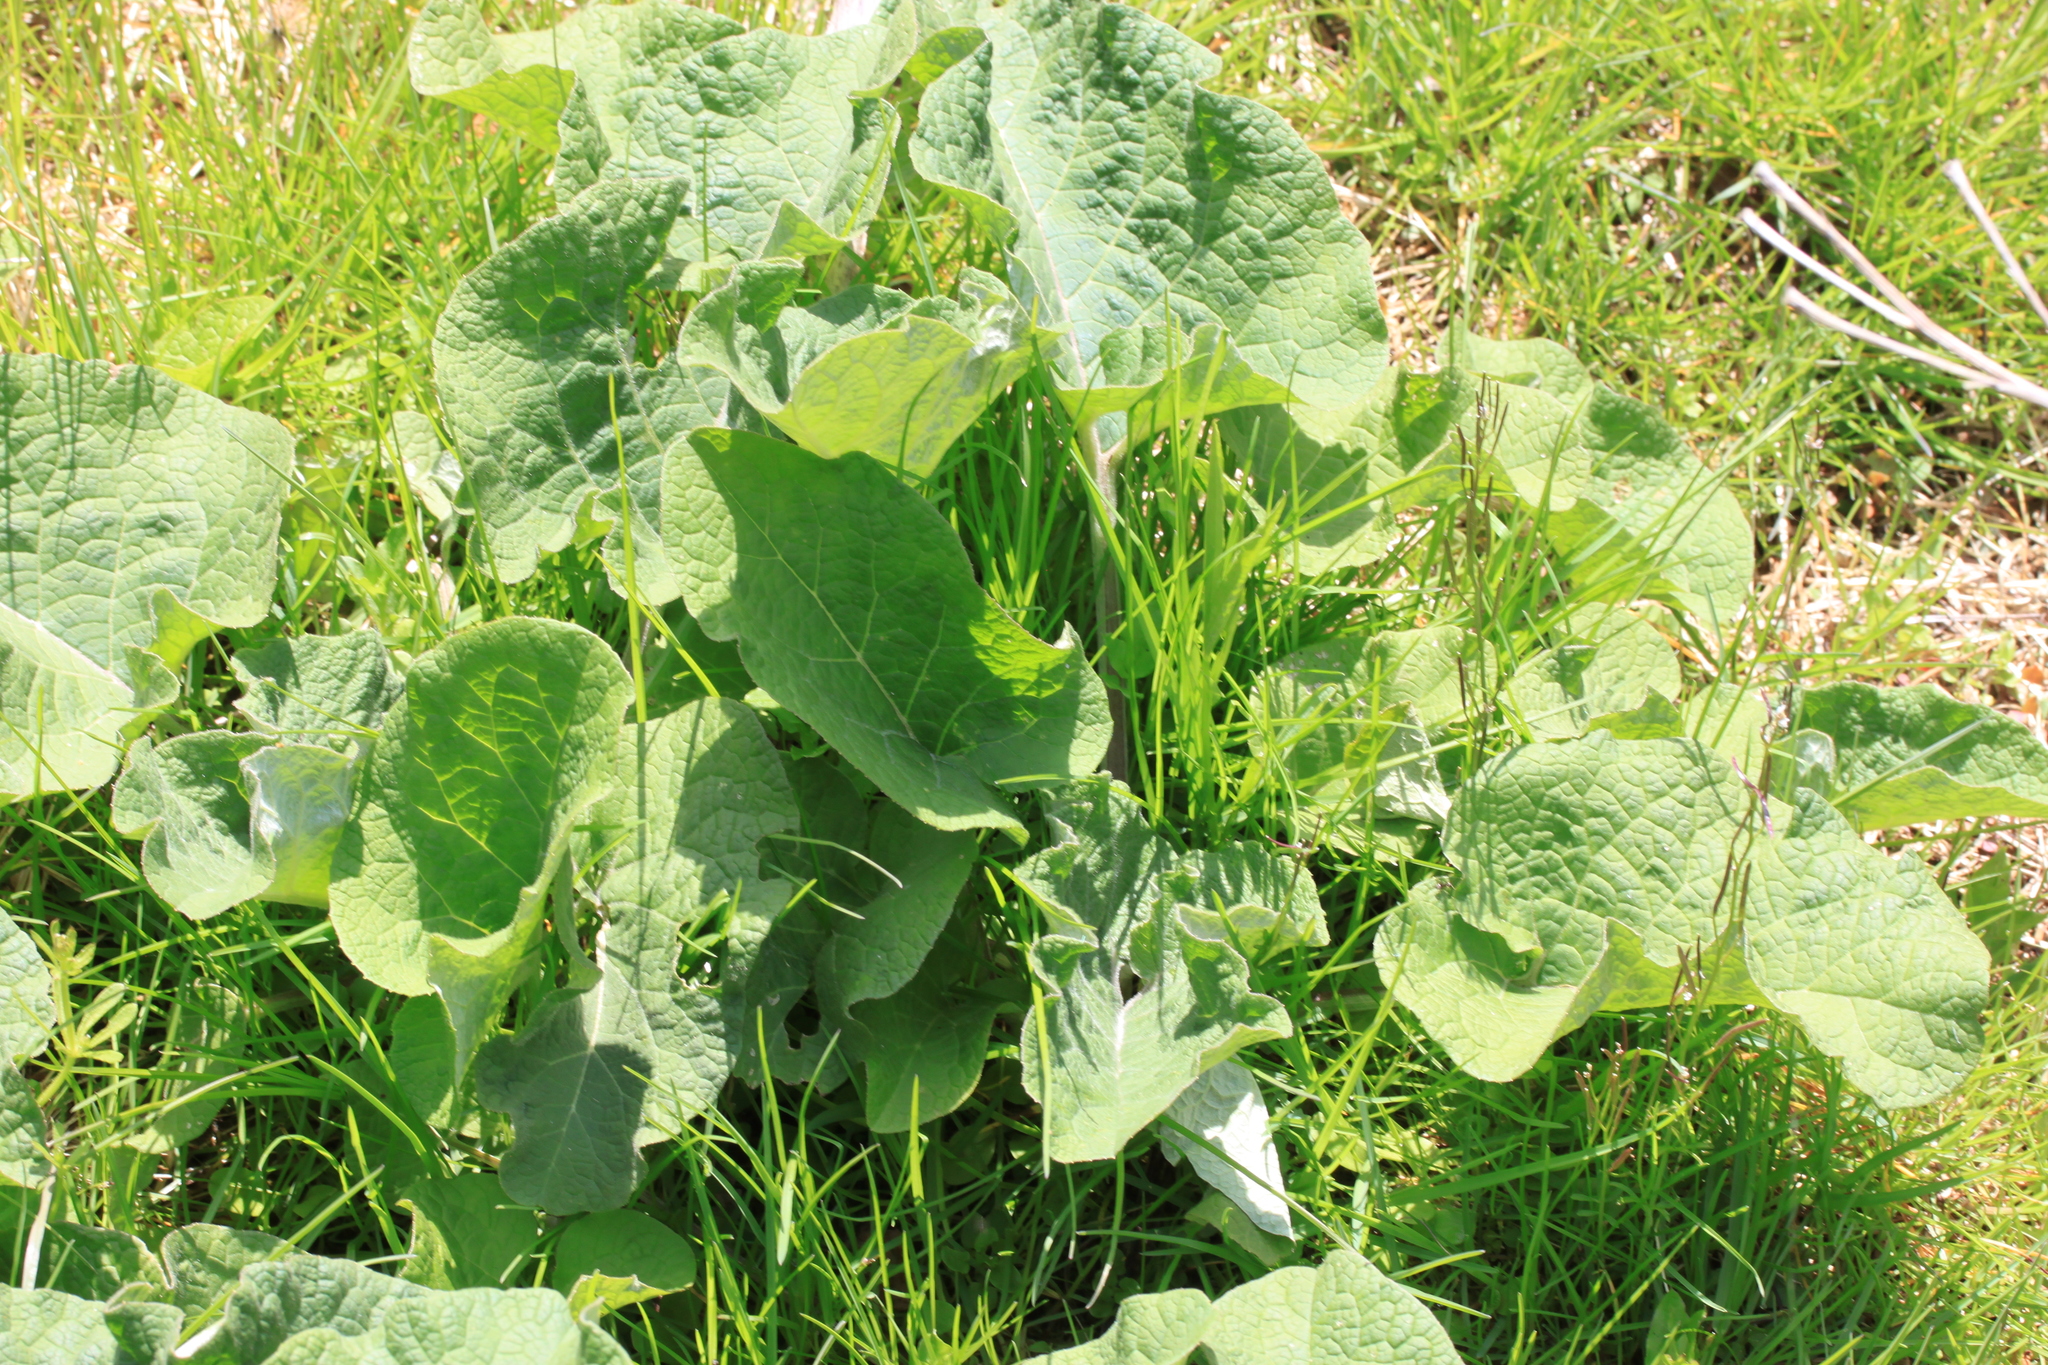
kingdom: Plantae
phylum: Tracheophyta
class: Magnoliopsida
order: Asterales
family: Asteraceae
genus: Arctium
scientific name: Arctium lappa
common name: Greater burdock
